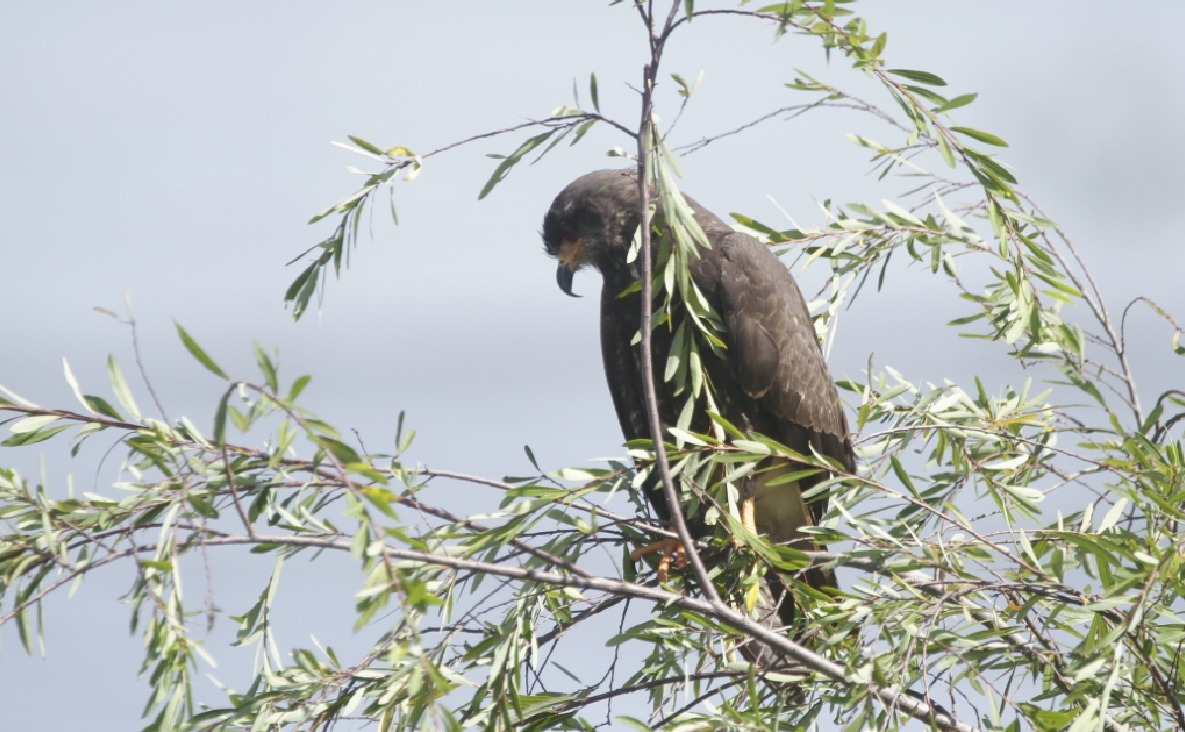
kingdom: Animalia
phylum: Chordata
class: Aves
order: Accipitriformes
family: Accipitridae
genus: Rostrhamus
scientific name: Rostrhamus sociabilis
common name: Snail kite
